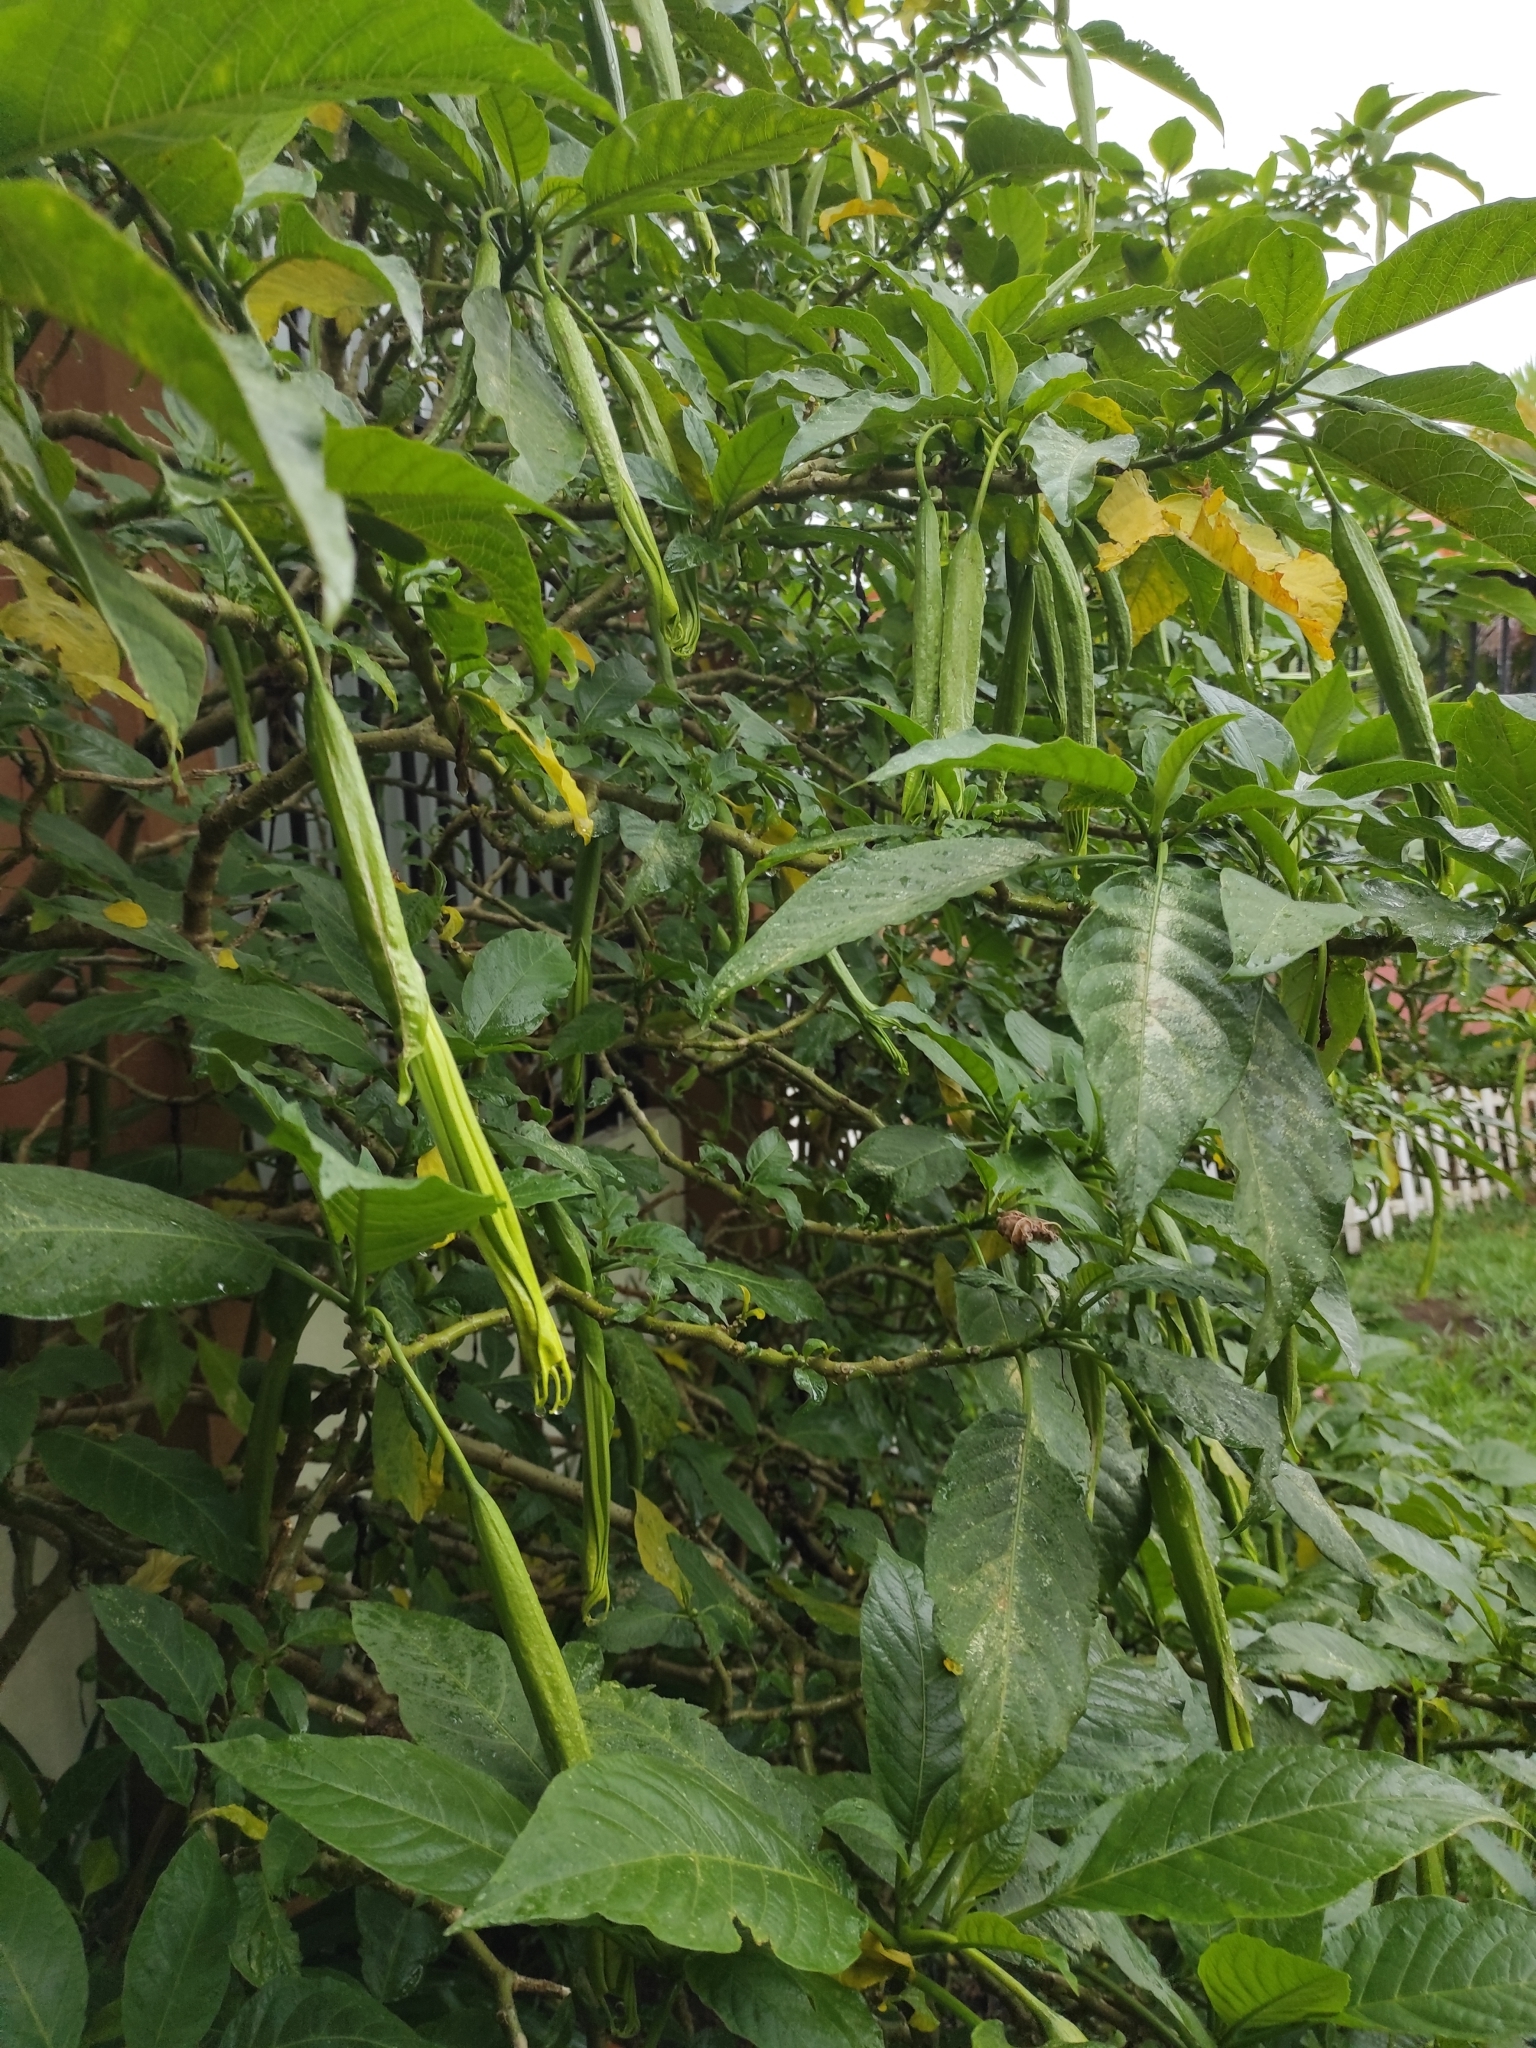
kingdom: Plantae
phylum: Tracheophyta
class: Magnoliopsida
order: Solanales
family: Solanaceae
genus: Brugmansia
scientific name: Brugmansia suaveolens
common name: Angel's tears
